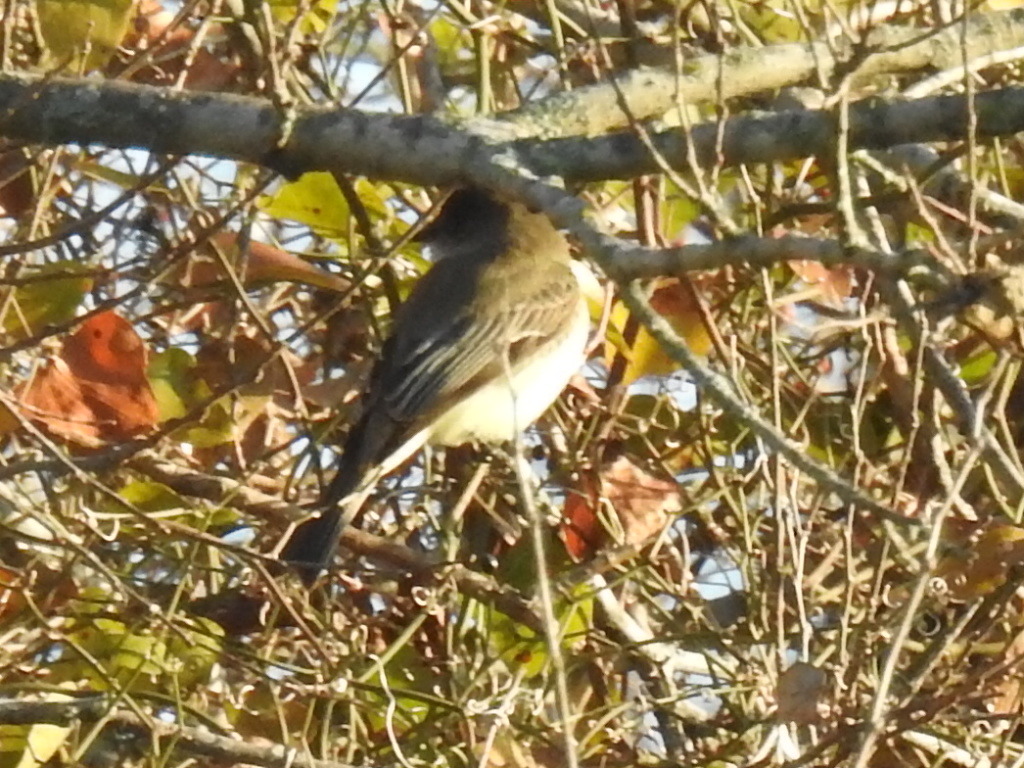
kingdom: Animalia
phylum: Chordata
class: Aves
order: Passeriformes
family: Tyrannidae
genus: Sayornis
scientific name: Sayornis phoebe
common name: Eastern phoebe
